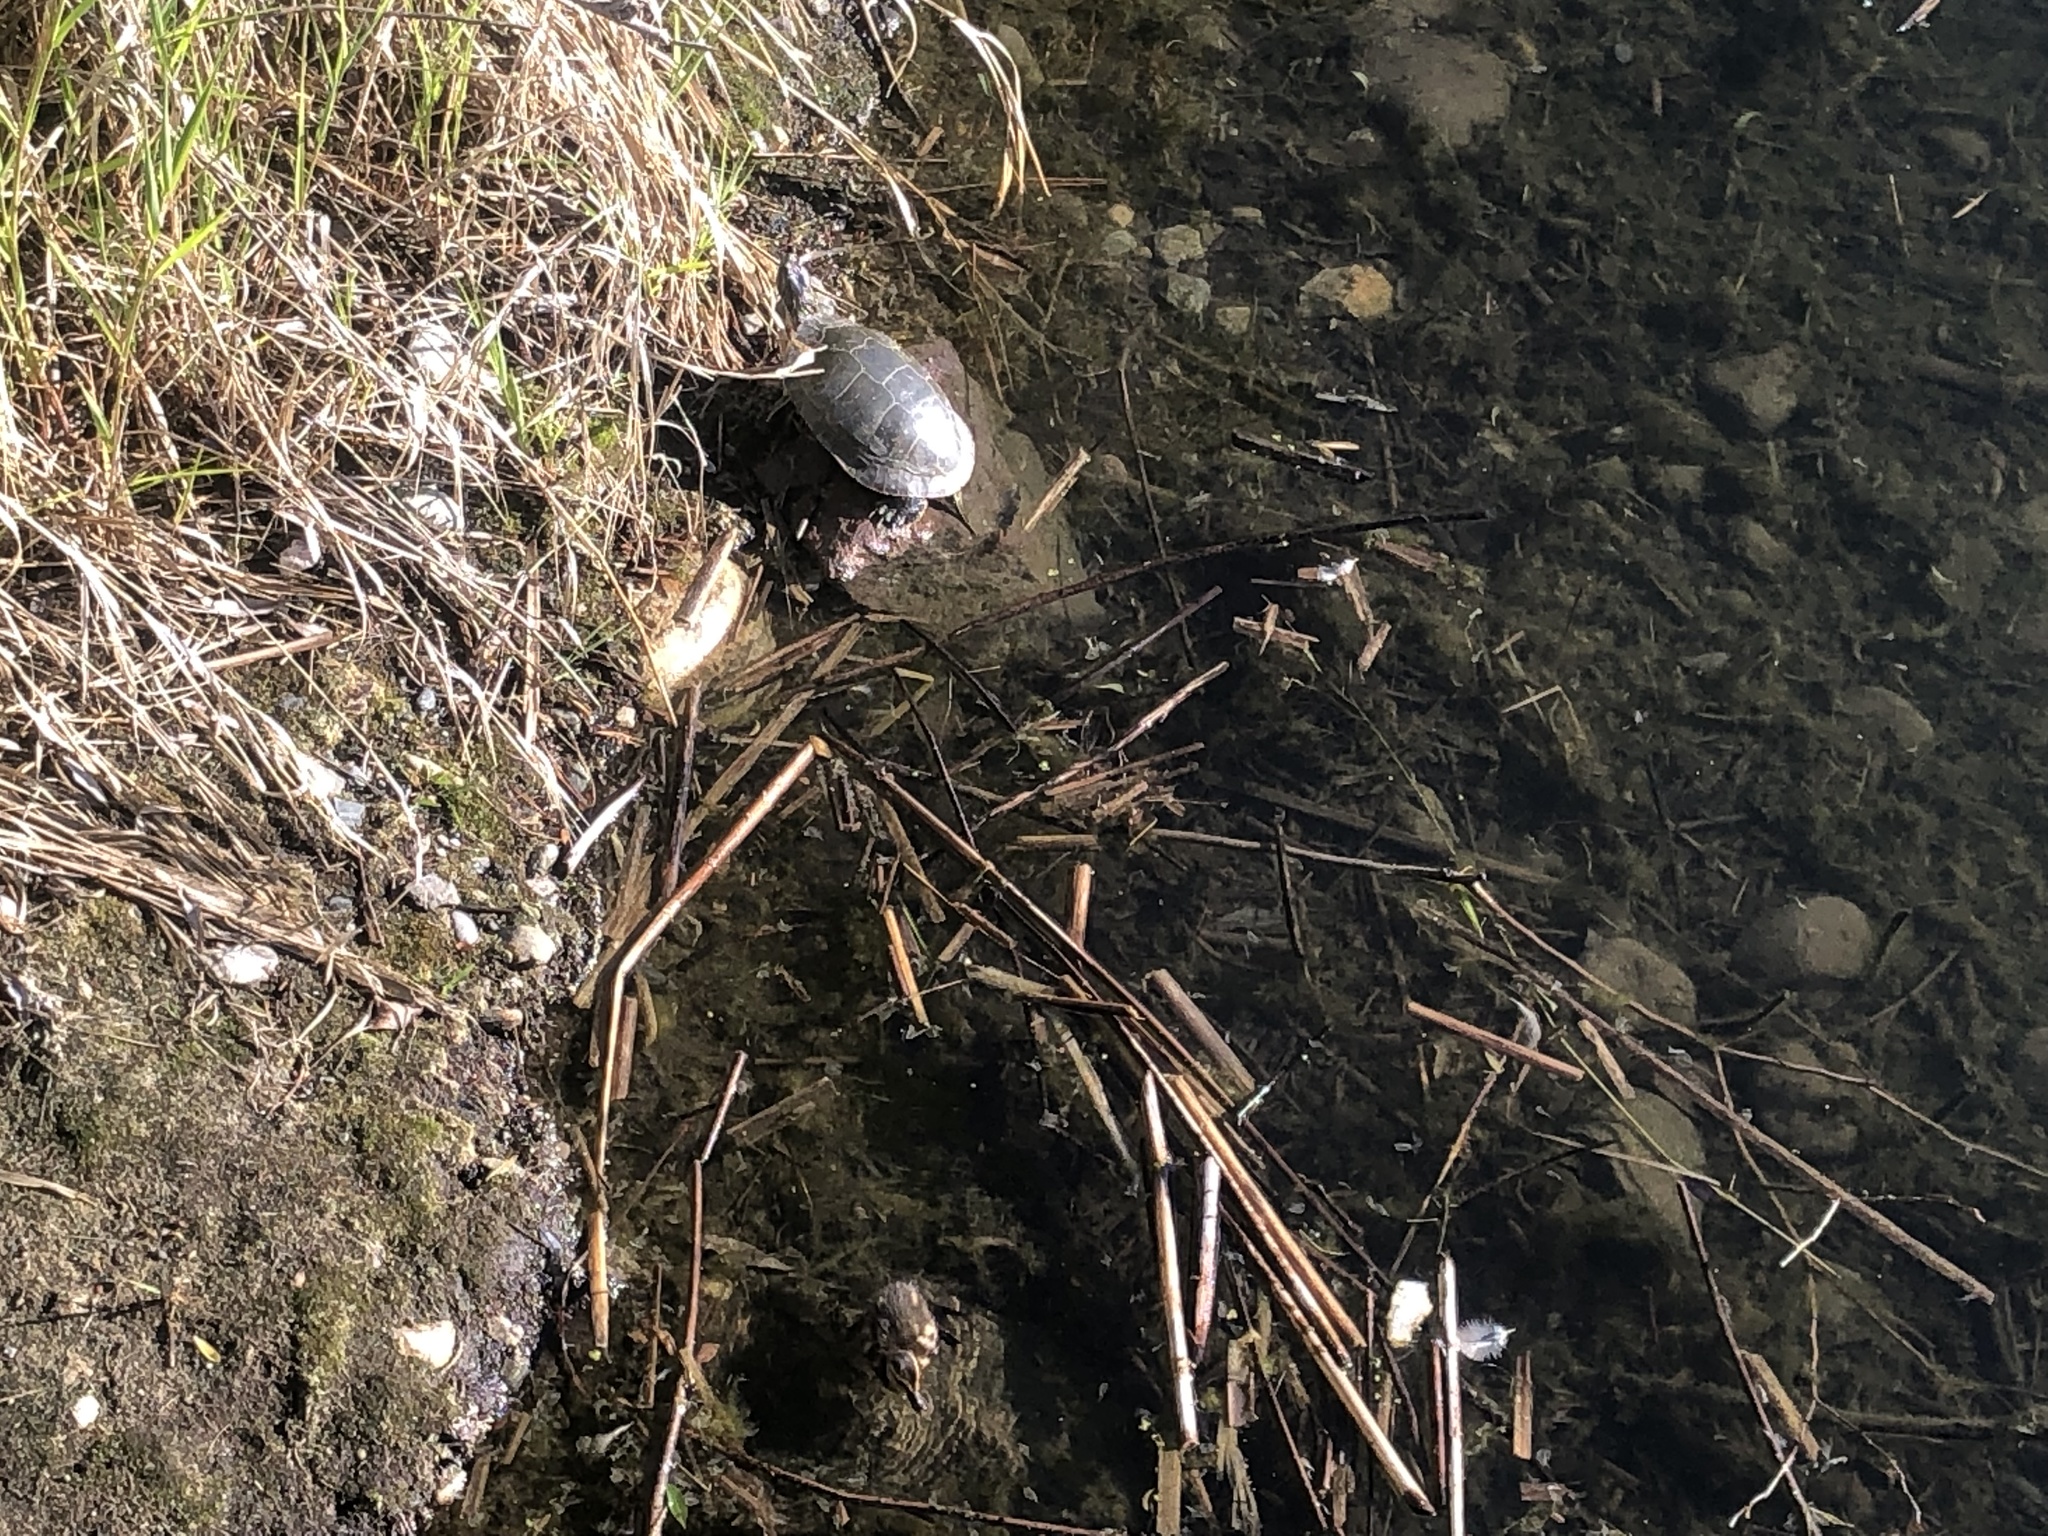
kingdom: Animalia
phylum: Chordata
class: Testudines
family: Emydidae
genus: Chrysemys
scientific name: Chrysemys picta
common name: Painted turtle
